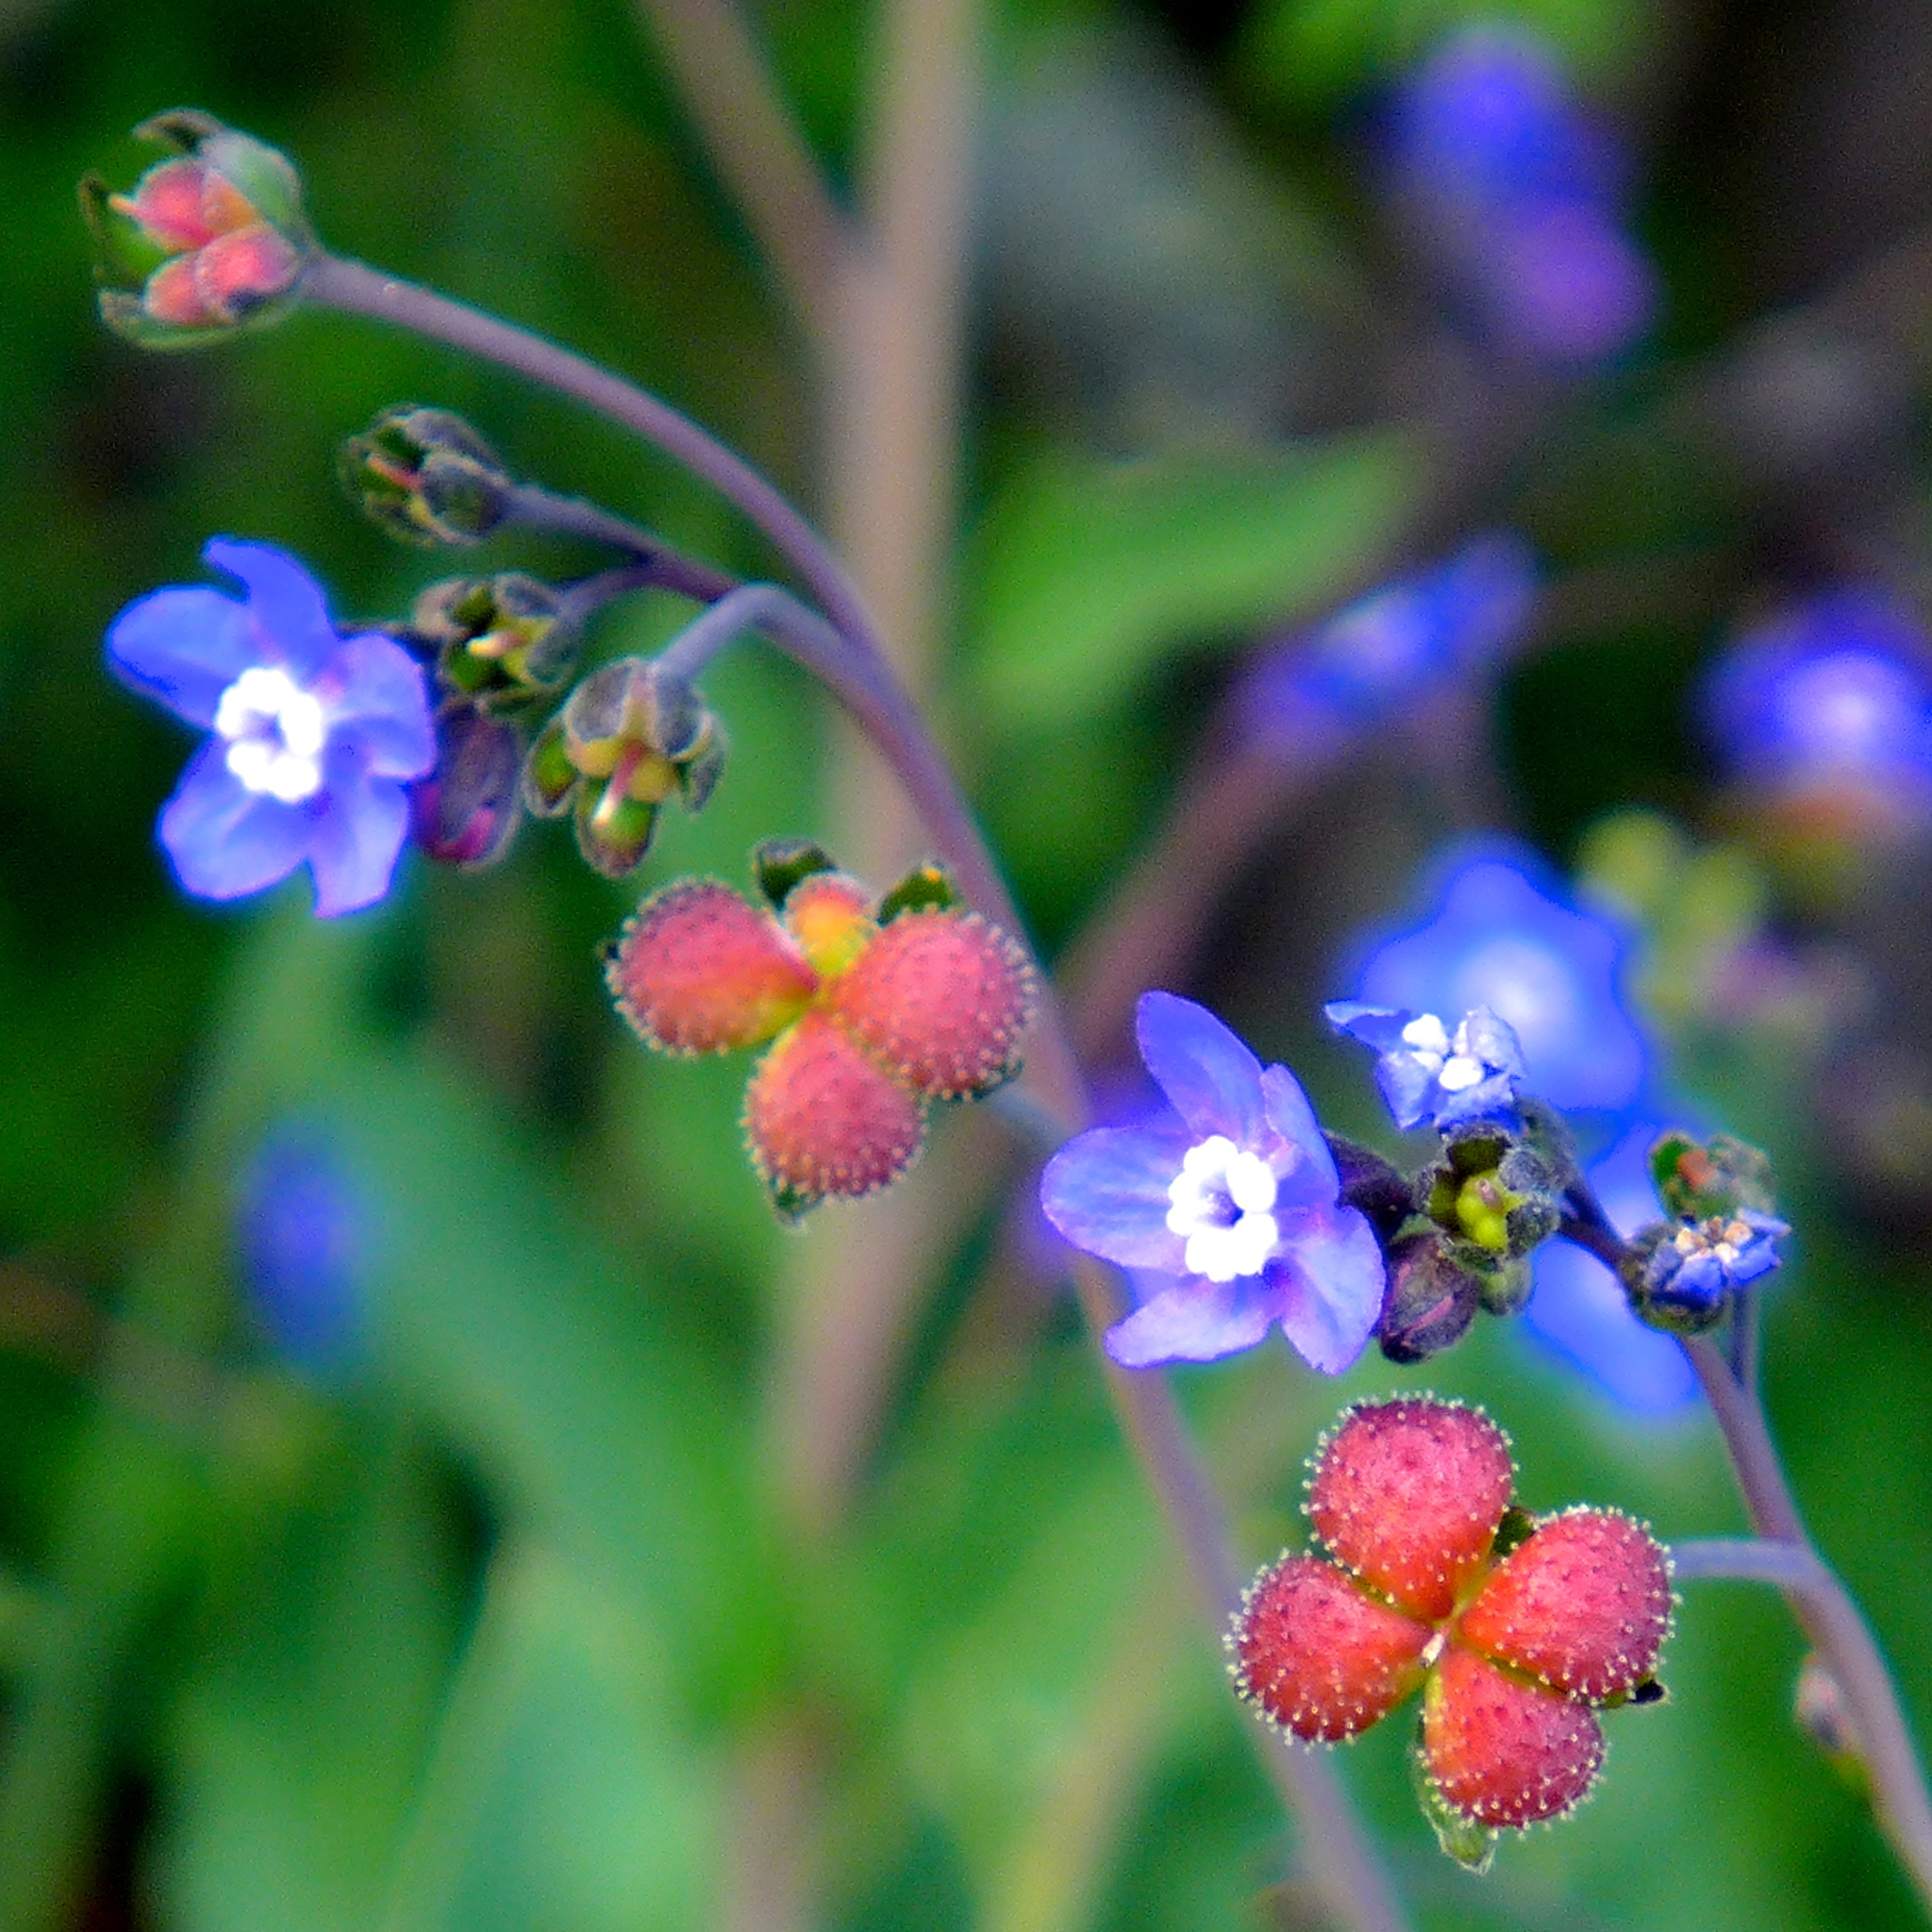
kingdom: Plantae
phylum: Tracheophyta
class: Magnoliopsida
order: Boraginales
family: Boraginaceae
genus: Adelinia
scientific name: Adelinia grande
